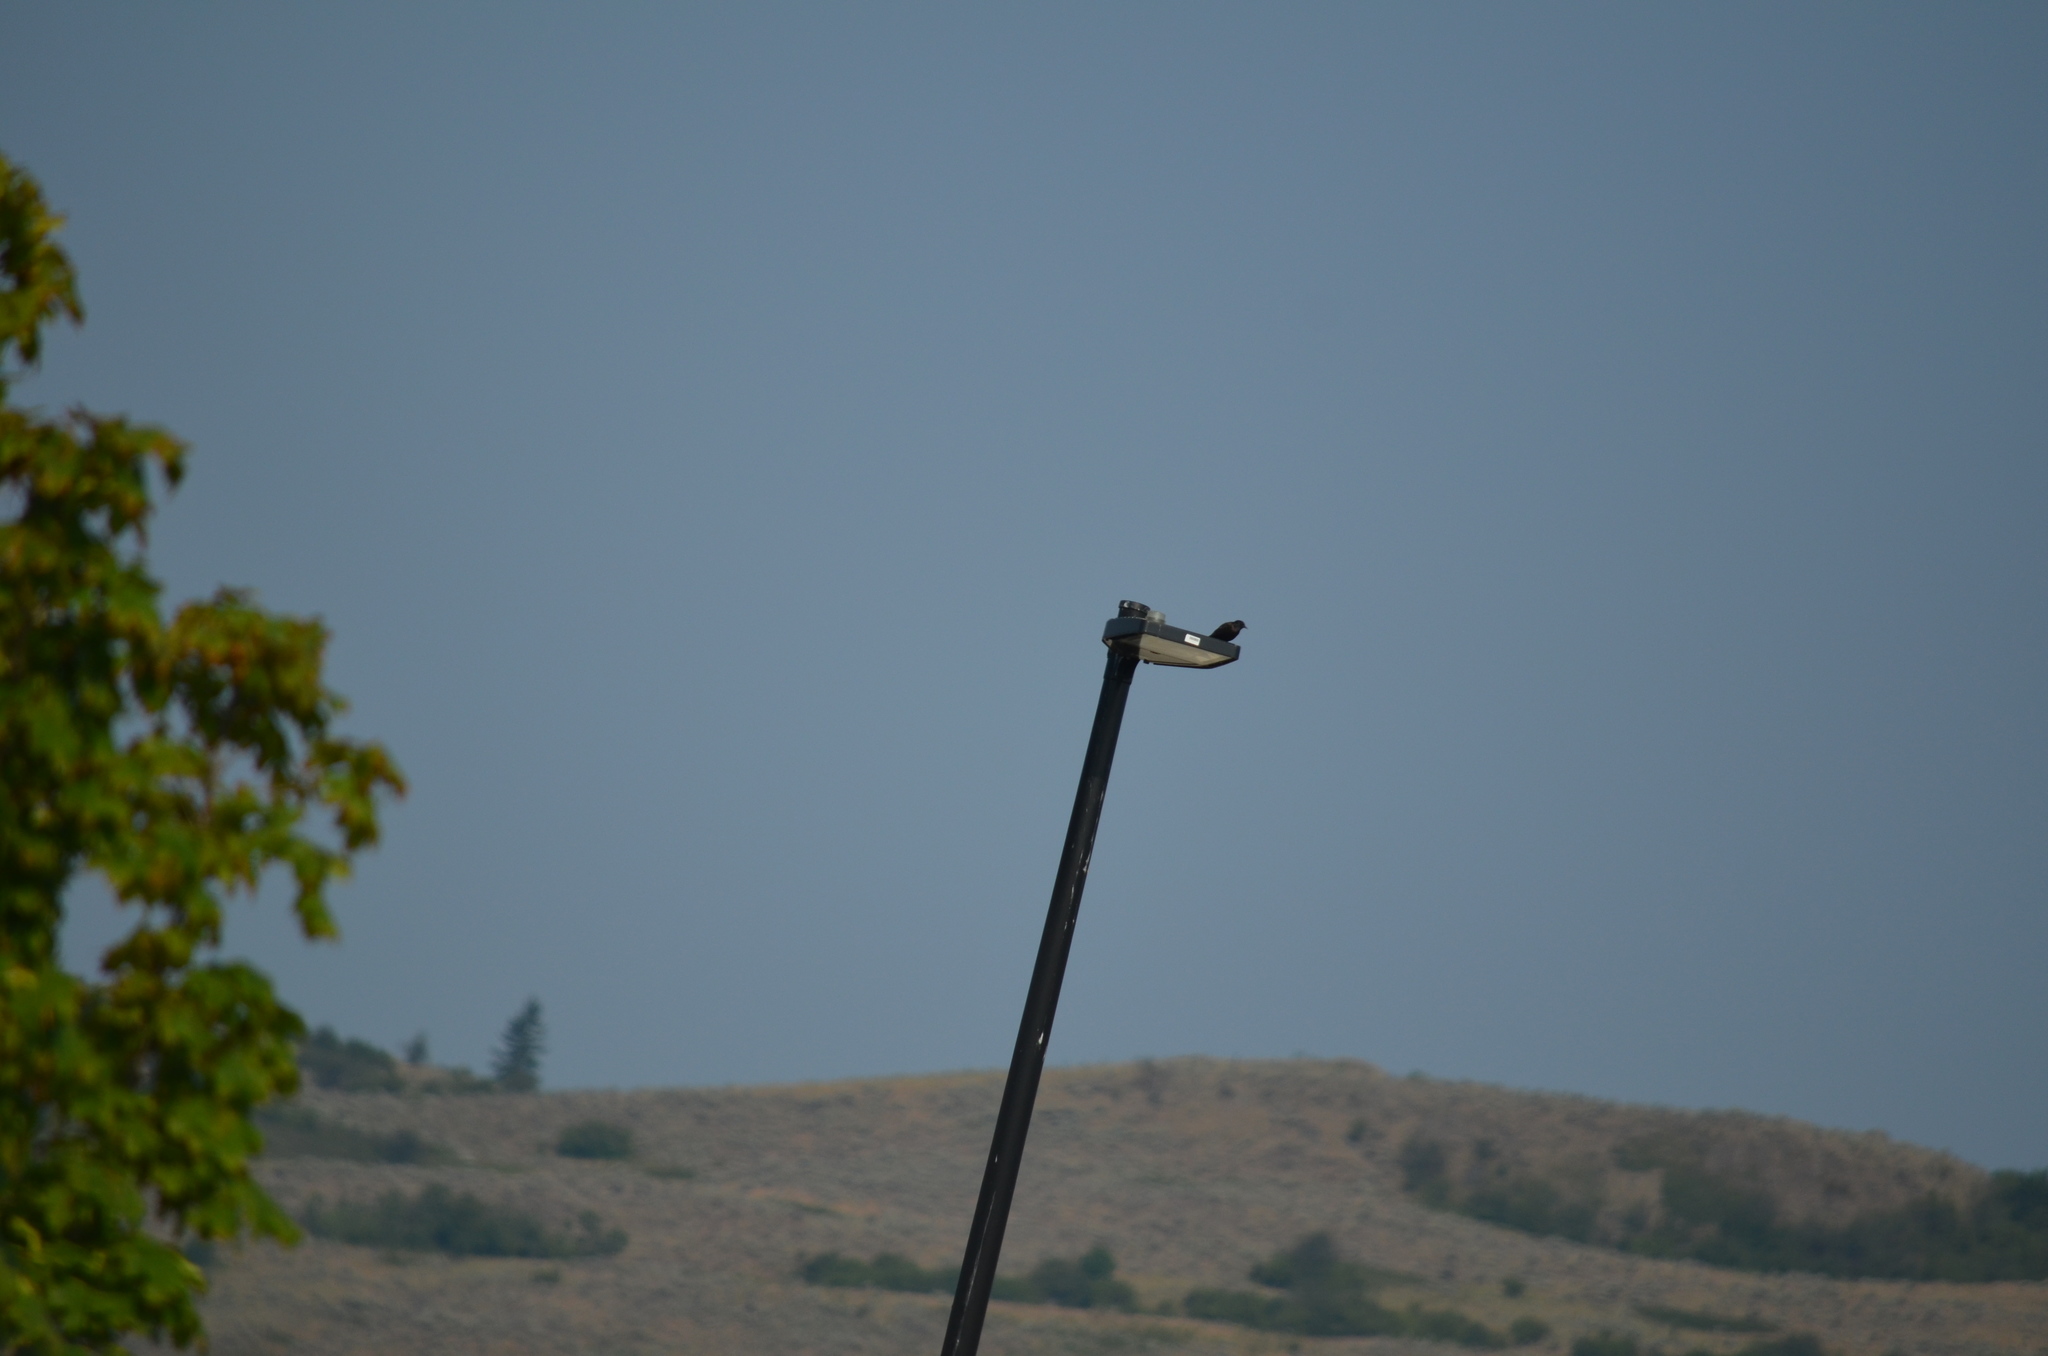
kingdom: Animalia
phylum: Chordata
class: Aves
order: Passeriformes
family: Corvidae
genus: Corvus
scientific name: Corvus brachyrhynchos
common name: American crow
